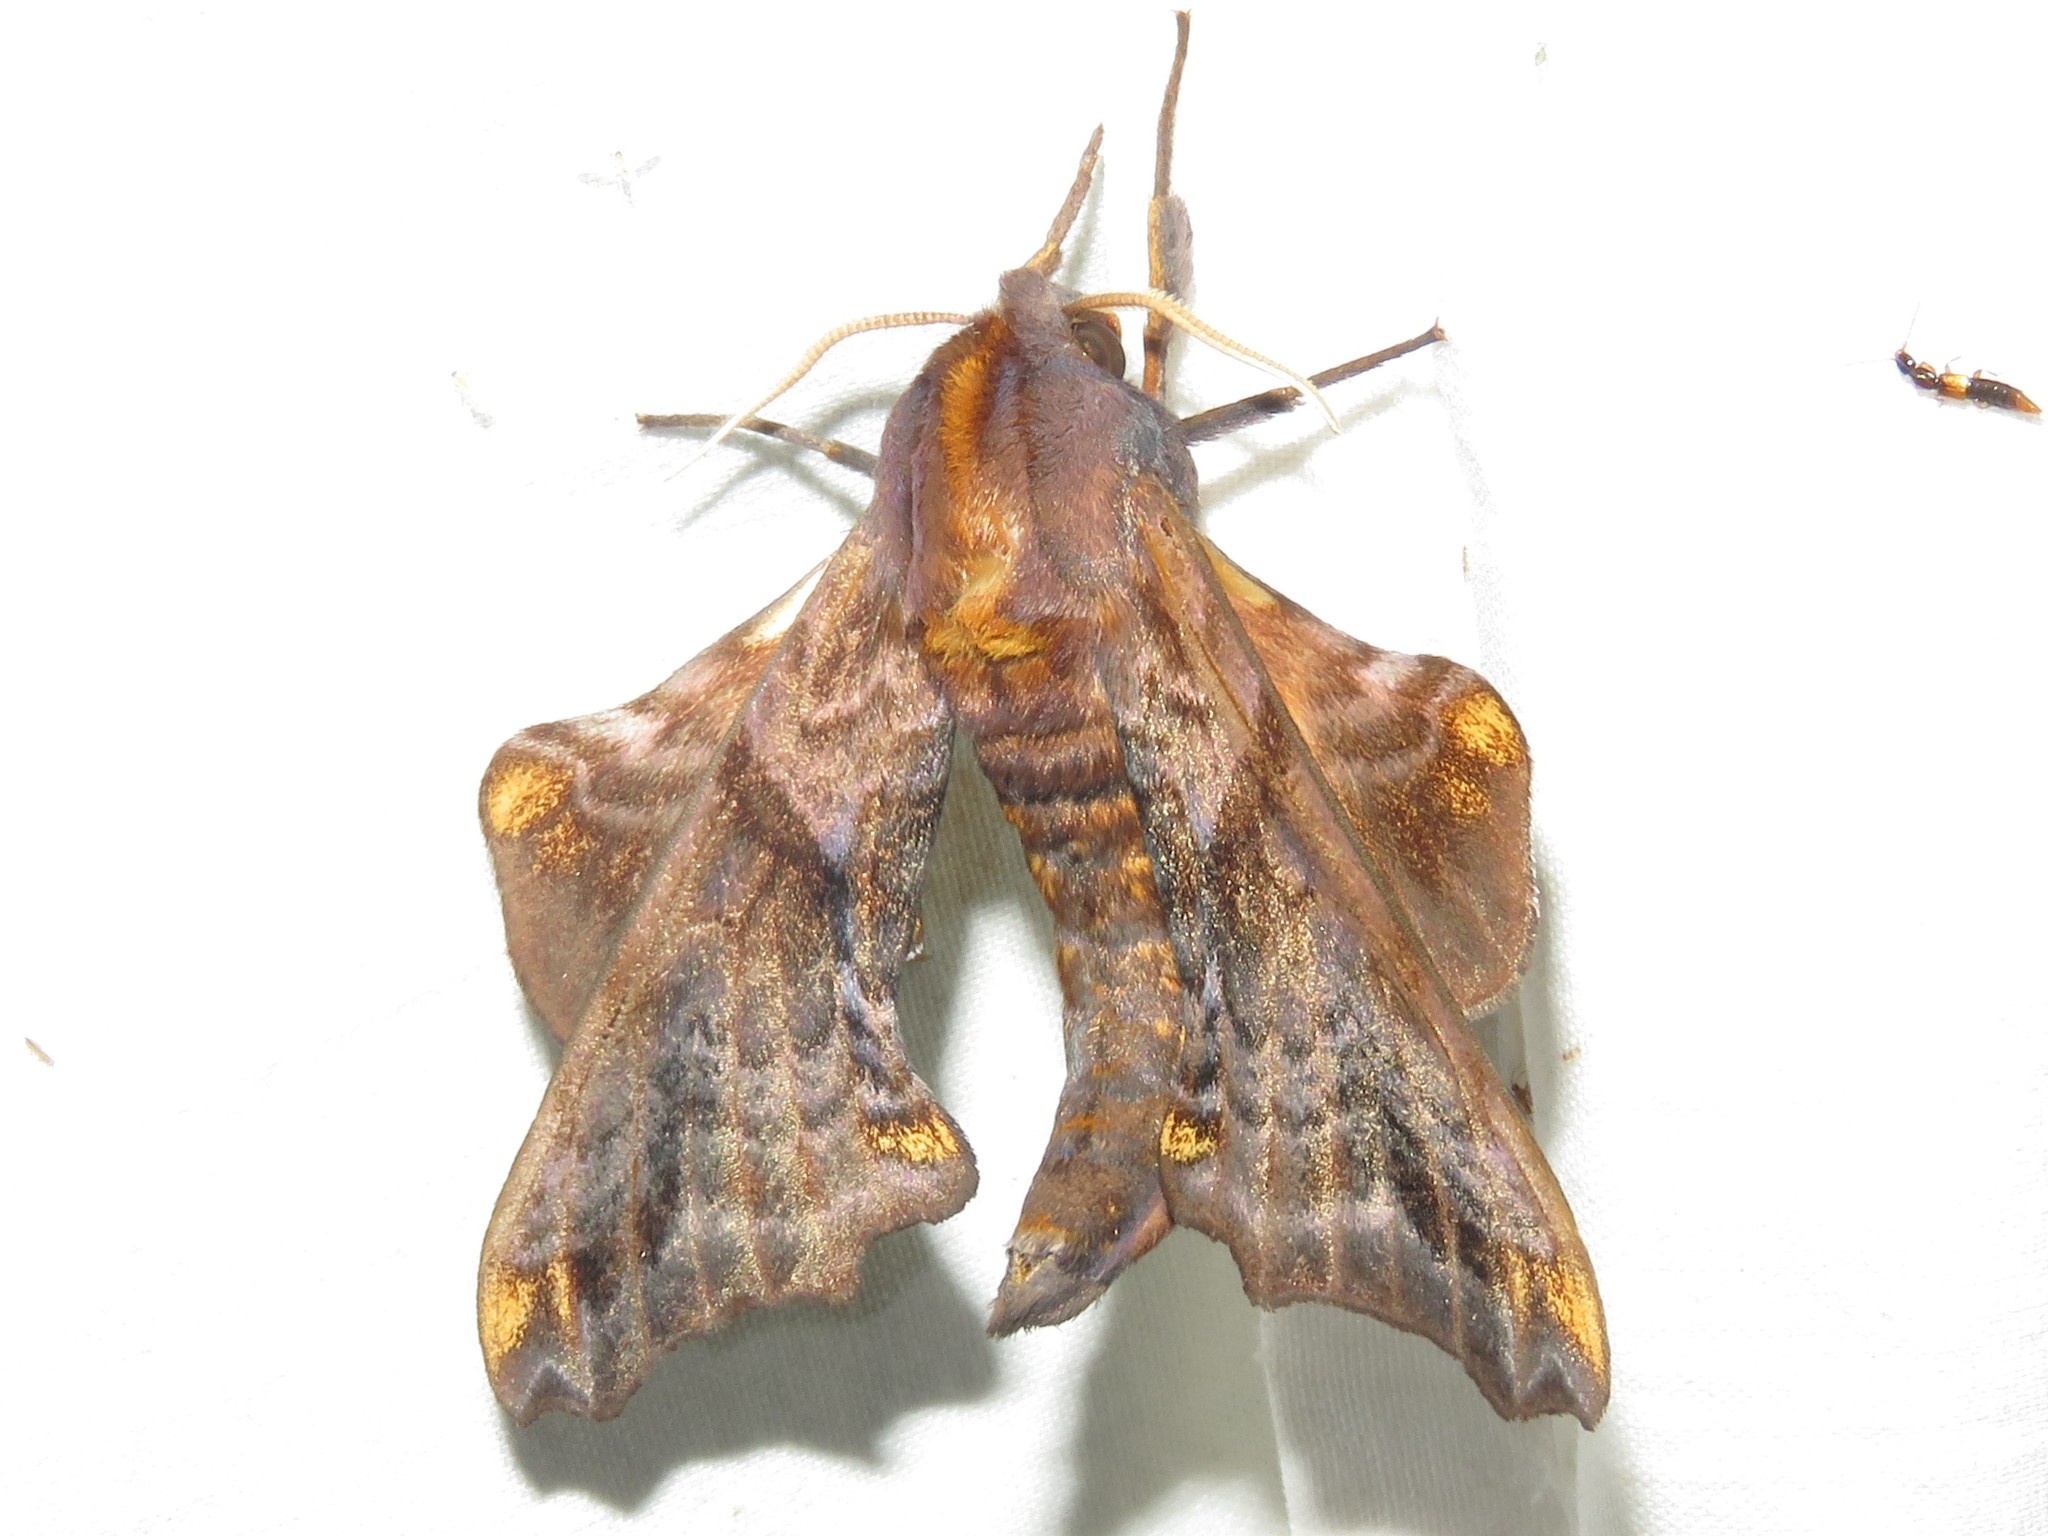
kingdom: Animalia
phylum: Arthropoda
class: Insecta
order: Lepidoptera
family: Sphingidae
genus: Paonias
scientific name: Paonias myops
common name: Small-eyed sphinx
